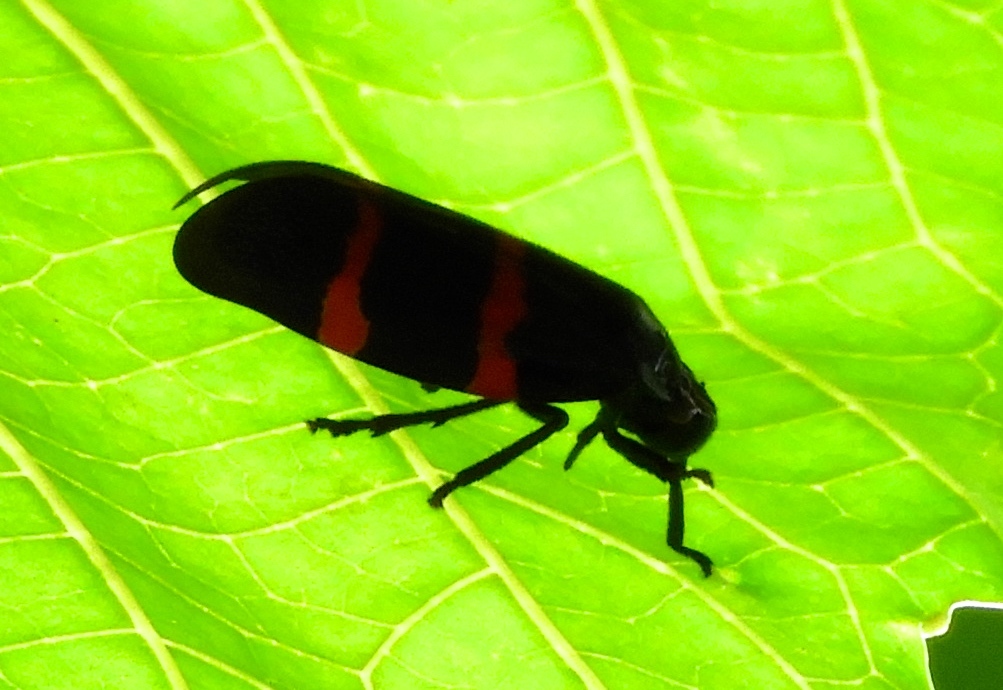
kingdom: Animalia
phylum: Arthropoda
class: Insecta
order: Hemiptera
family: Cercopidae
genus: Huaina
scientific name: Huaina inca
